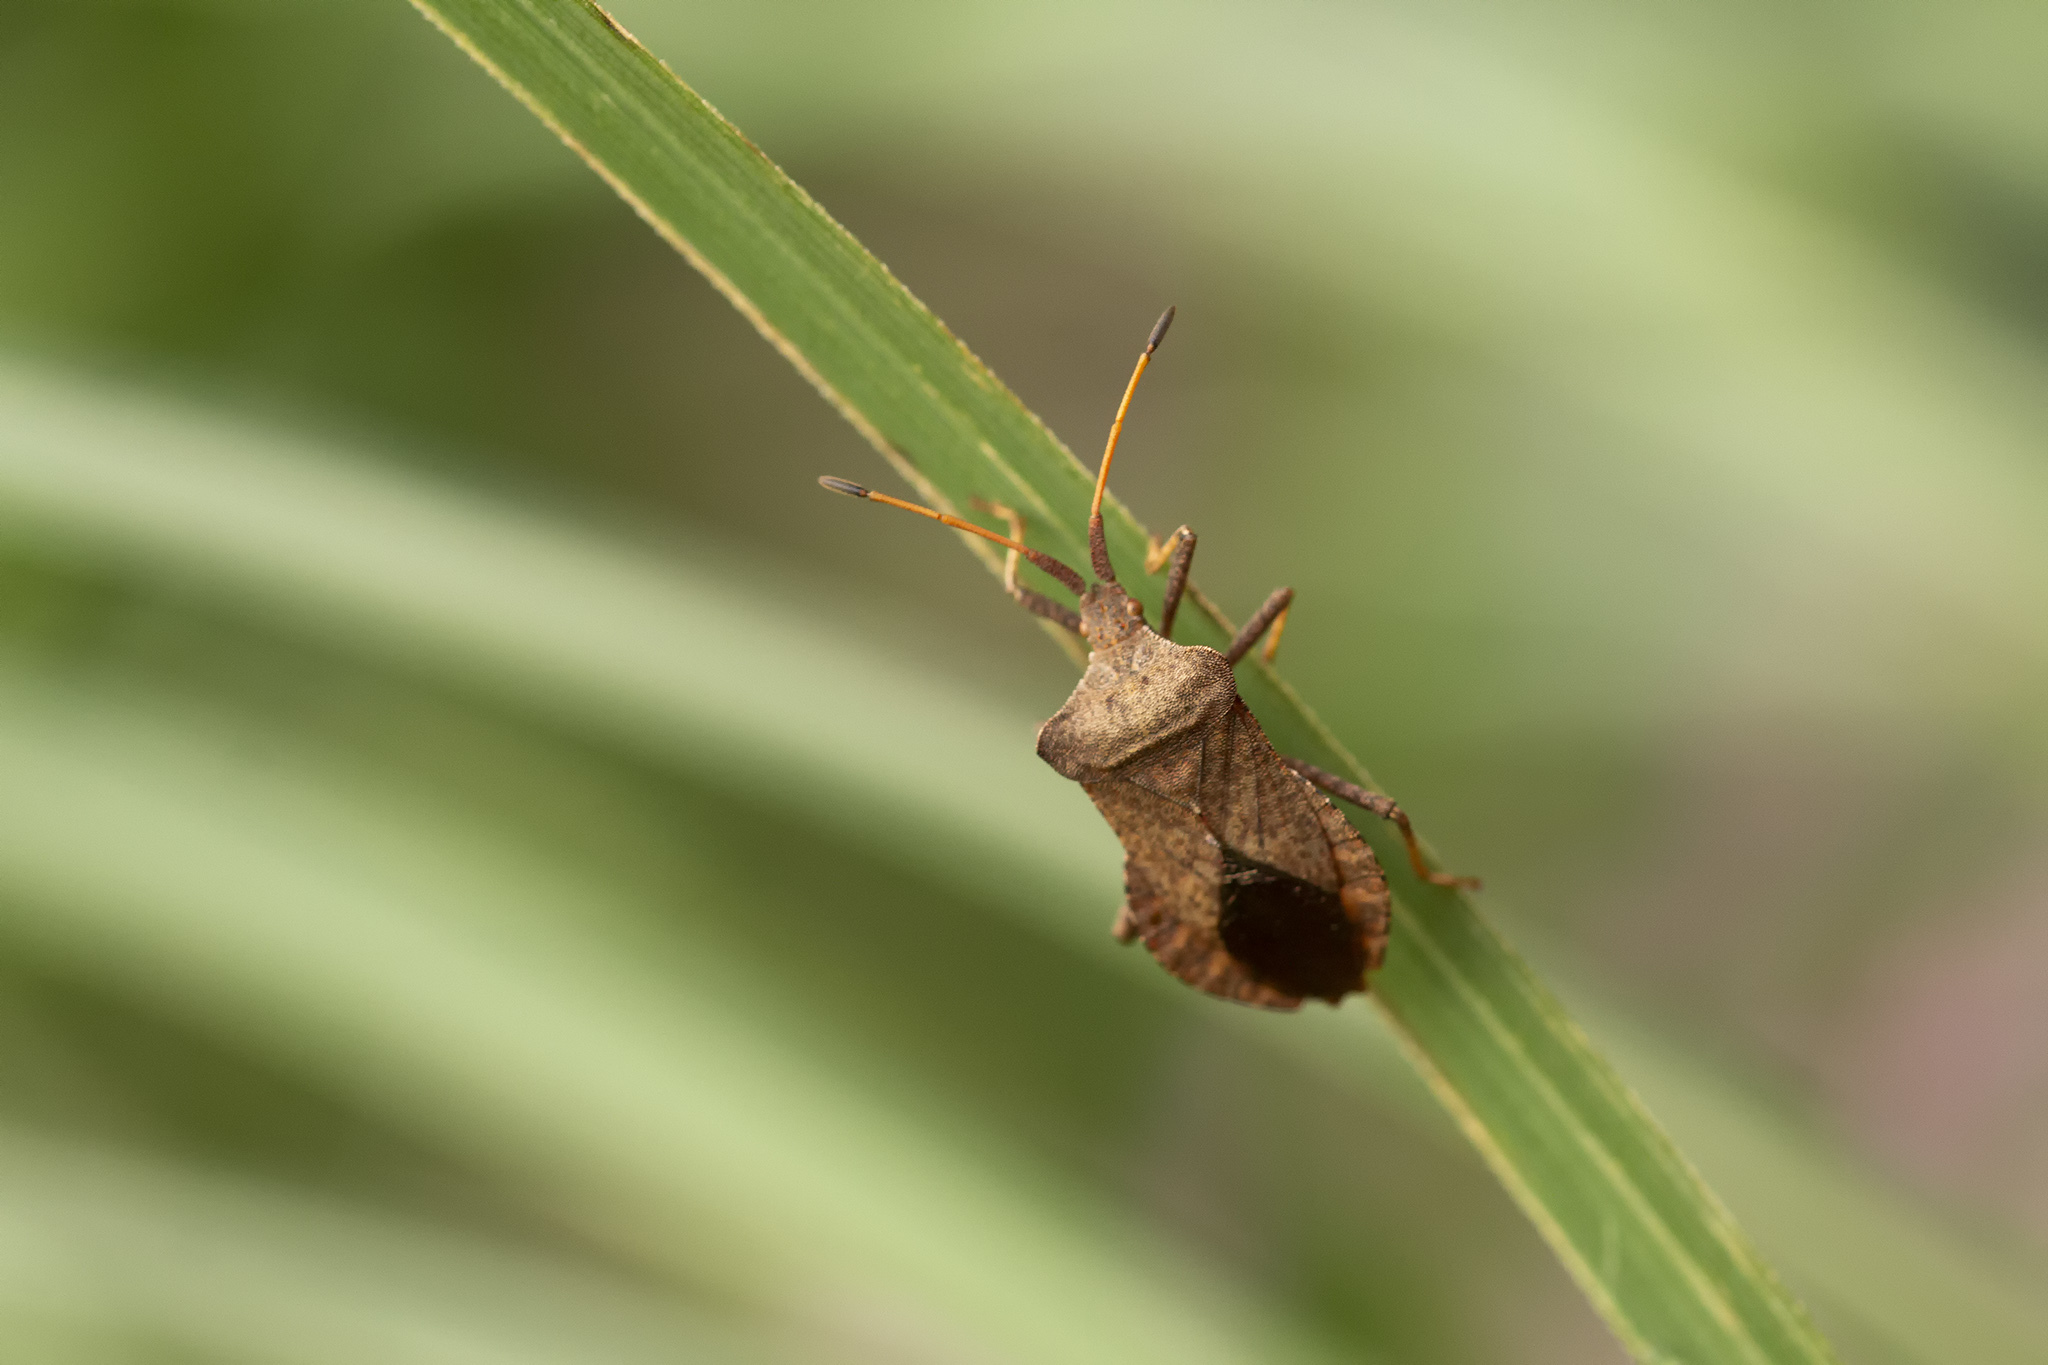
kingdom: Animalia
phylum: Arthropoda
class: Insecta
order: Hemiptera
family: Coreidae
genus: Coreus
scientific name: Coreus marginatus
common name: Dock bug
